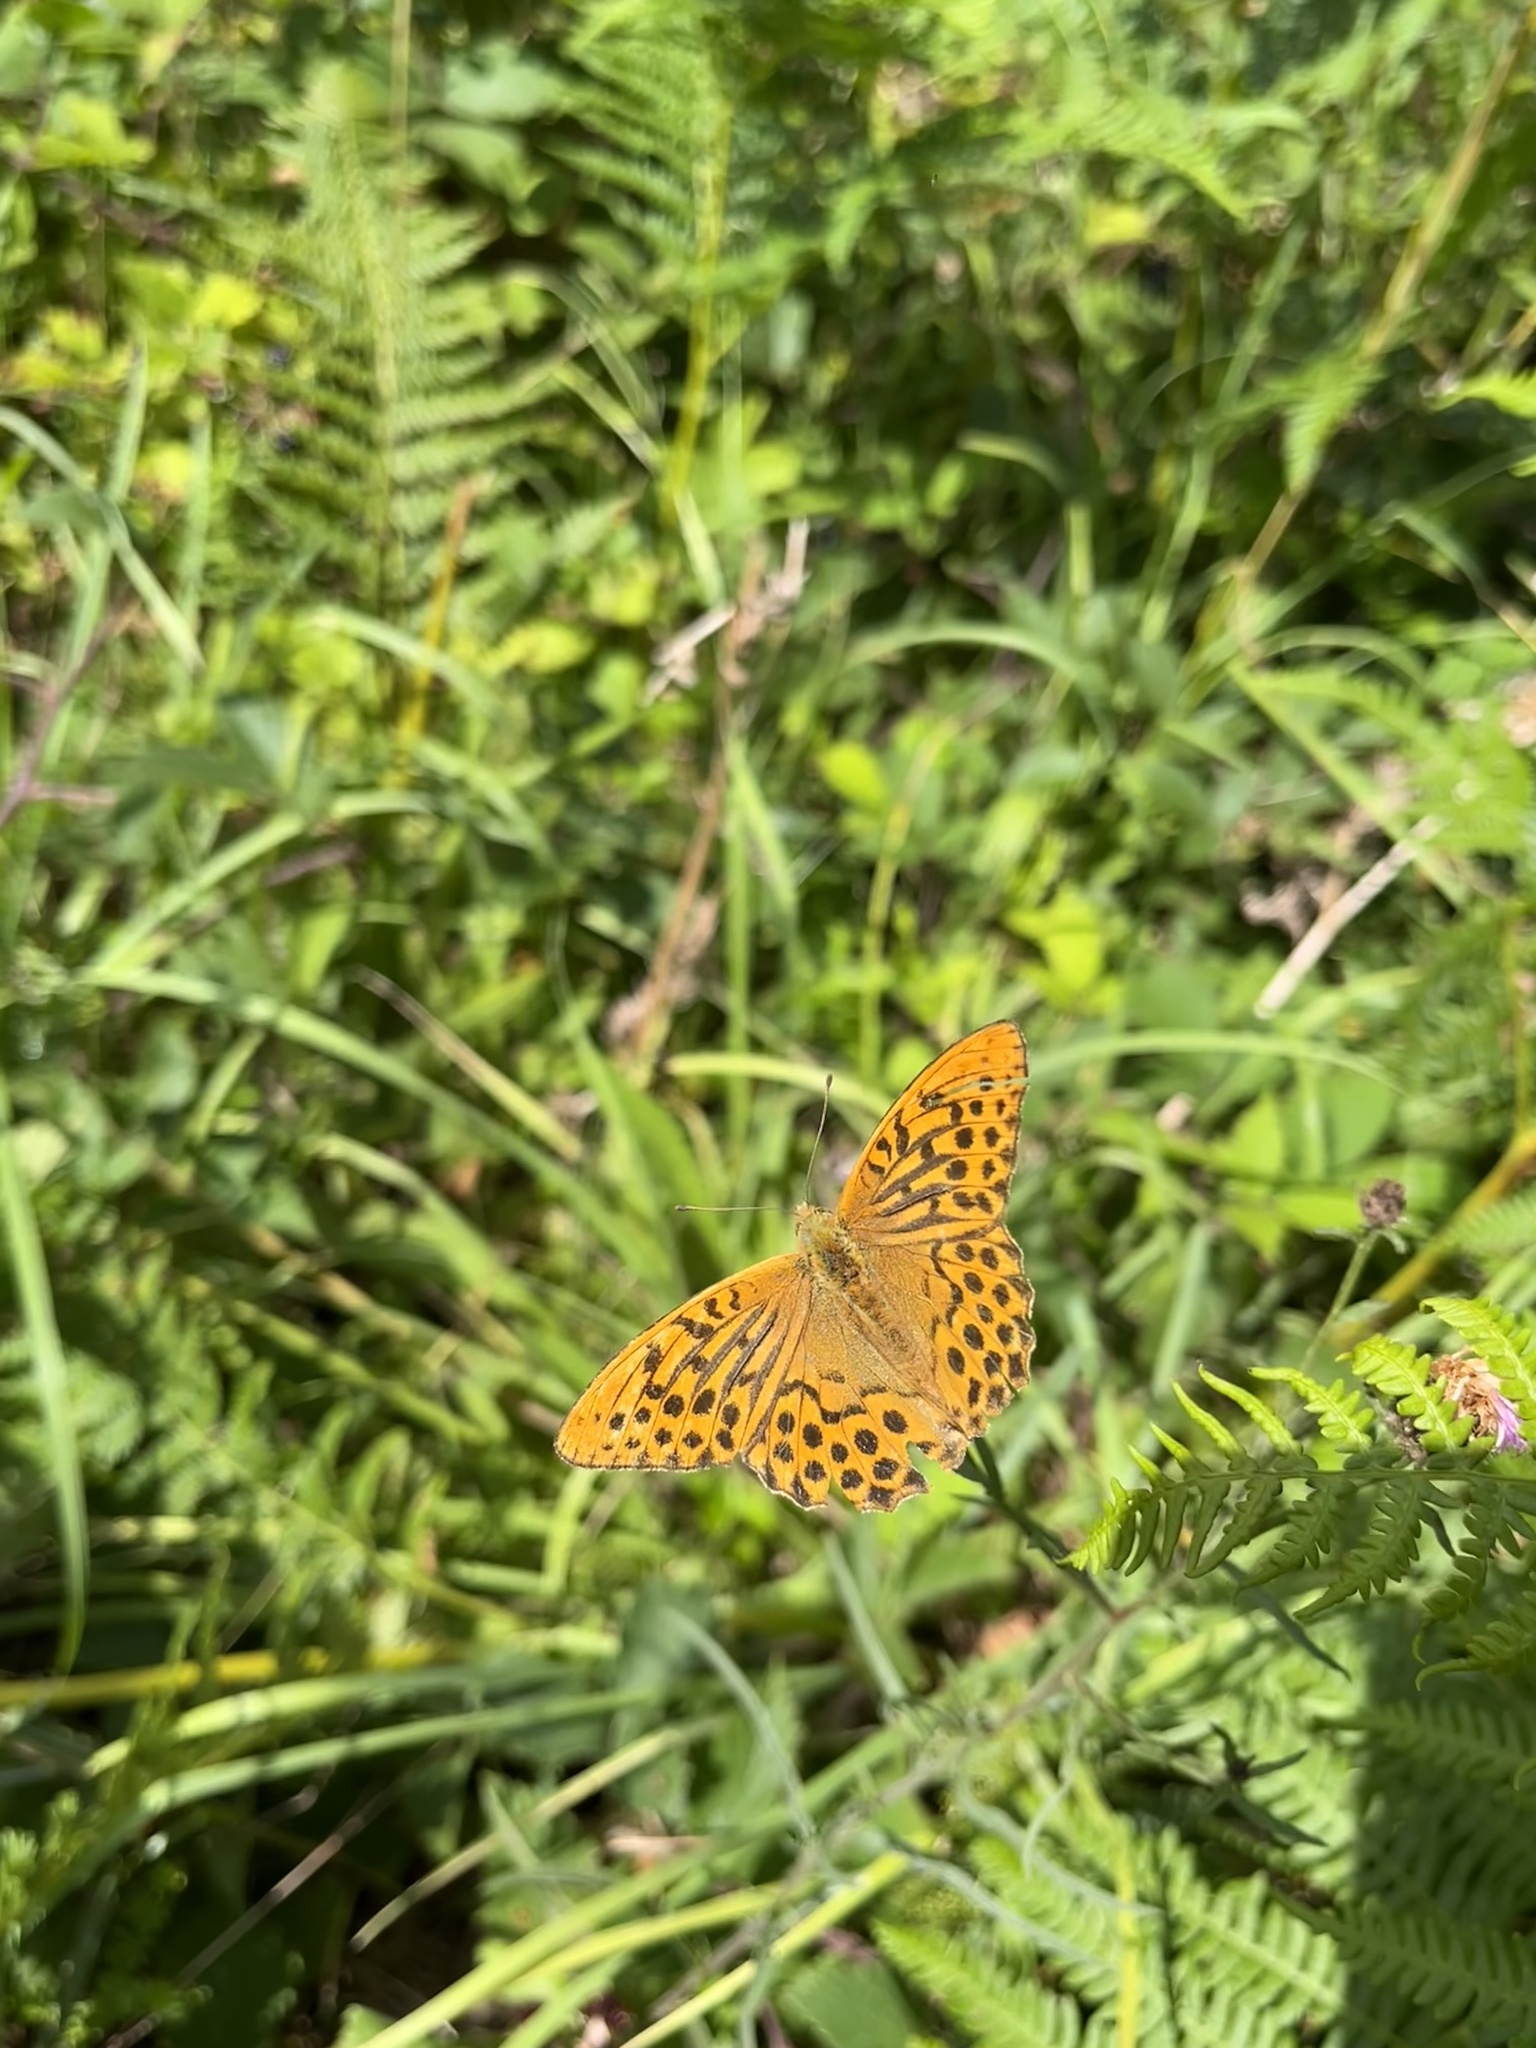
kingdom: Animalia
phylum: Arthropoda
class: Insecta
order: Lepidoptera
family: Nymphalidae
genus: Argynnis
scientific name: Argynnis paphia
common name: Silver-washed fritillary
